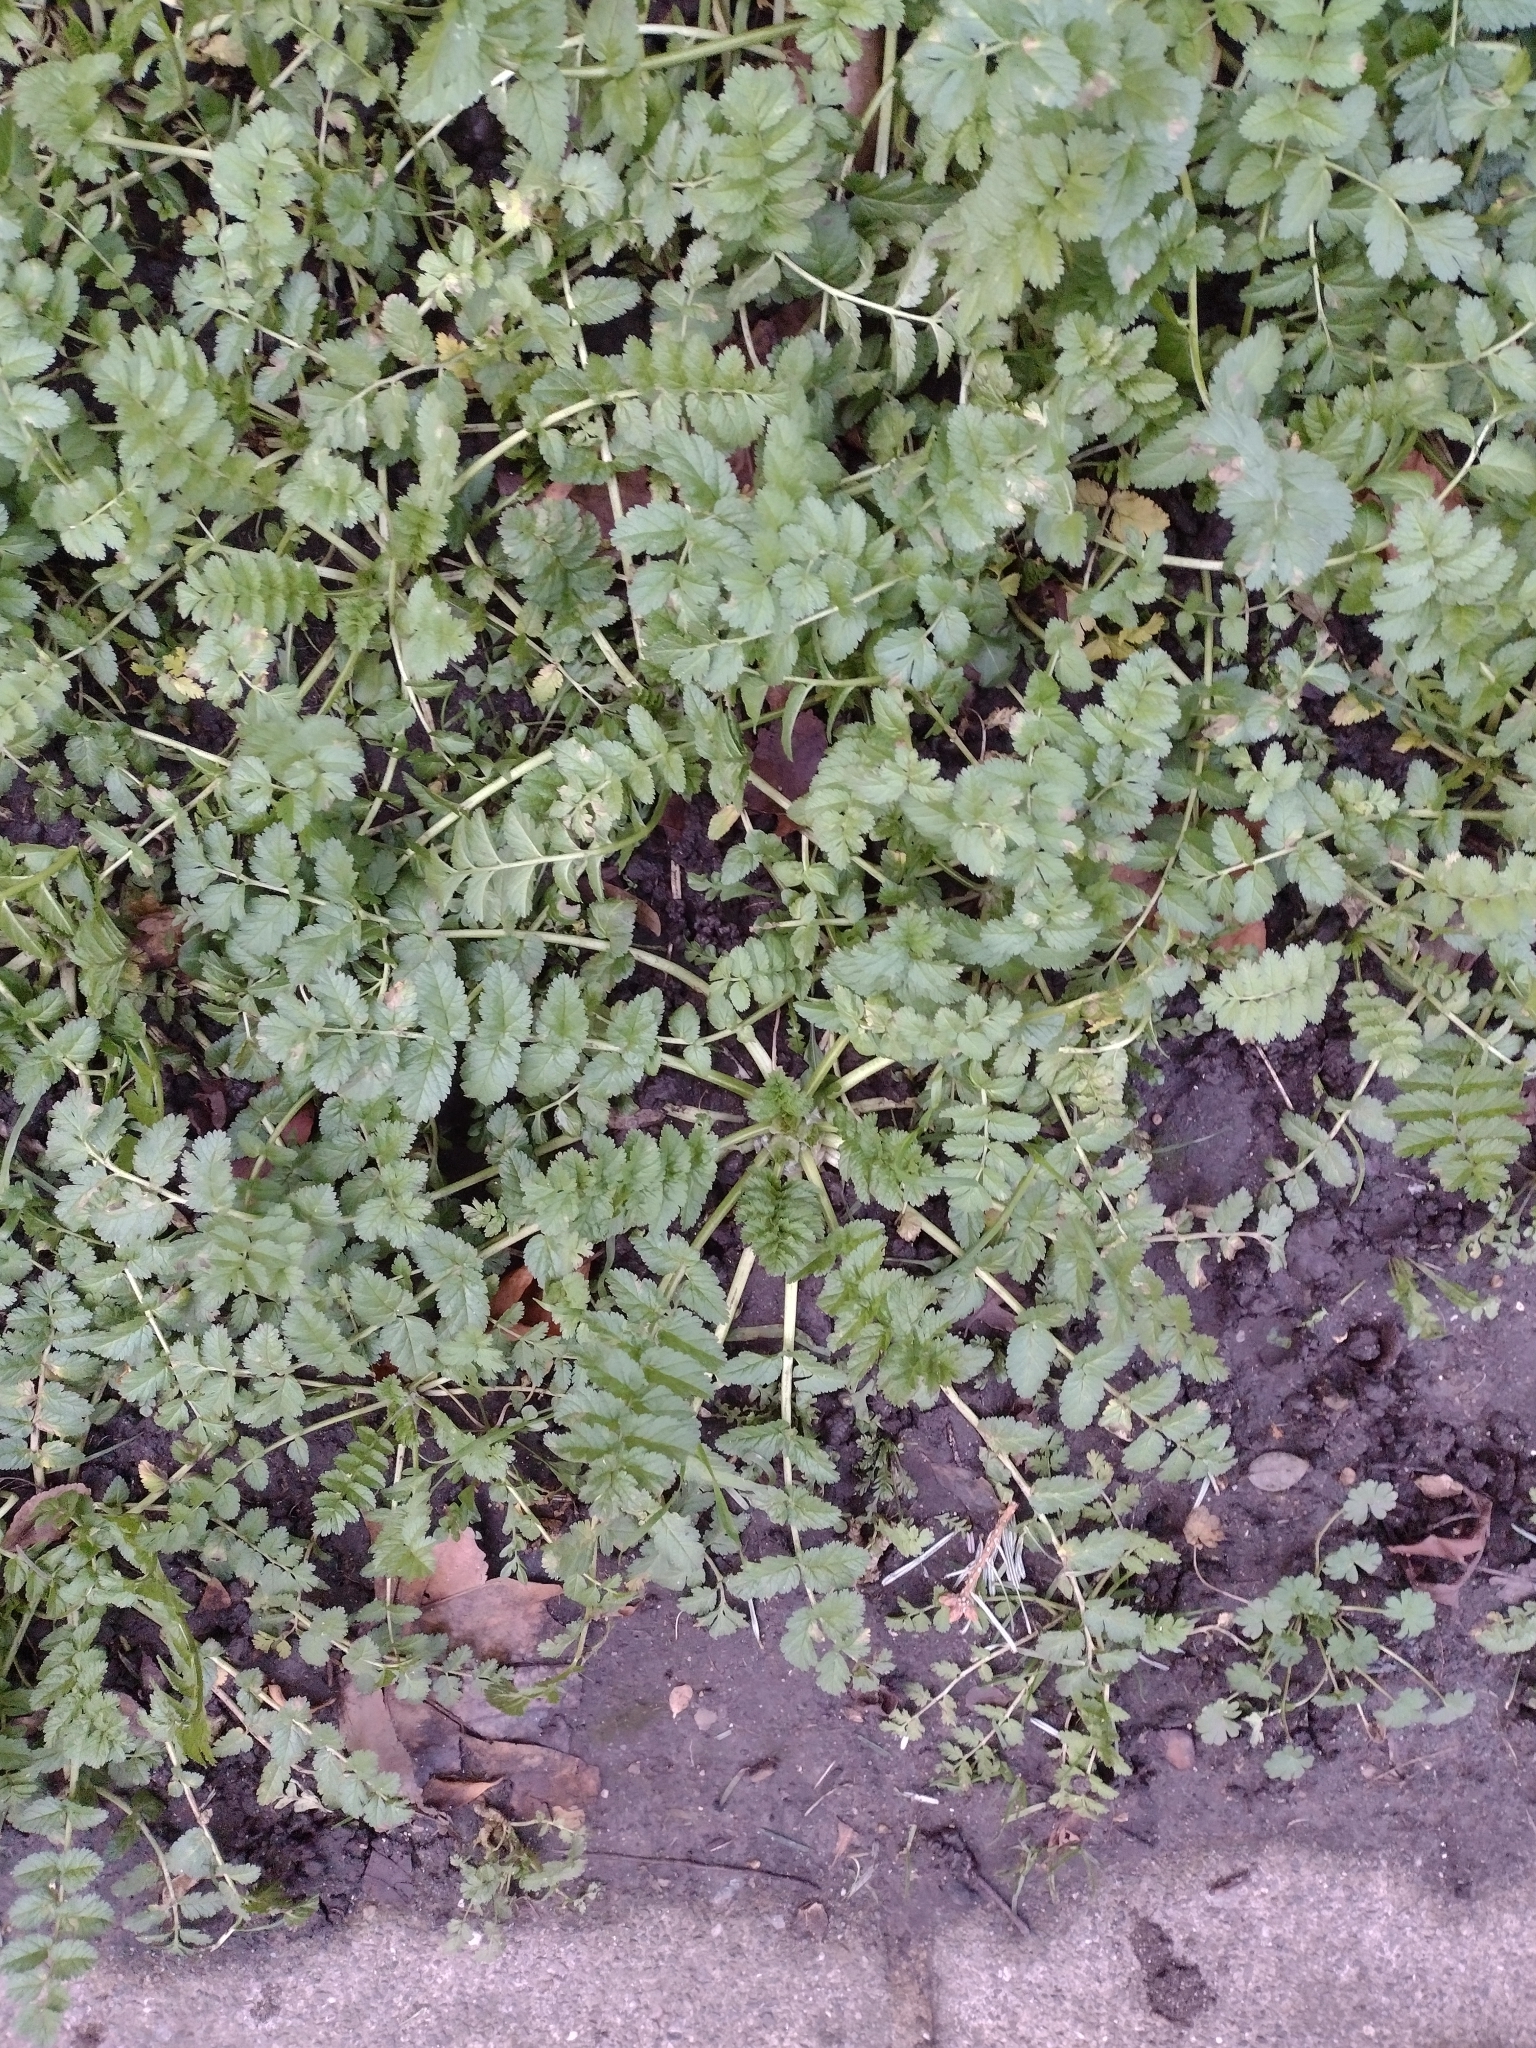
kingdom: Plantae
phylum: Tracheophyta
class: Magnoliopsida
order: Geraniales
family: Geraniaceae
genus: Erodium
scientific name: Erodium moschatum
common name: Musk stork's-bill
